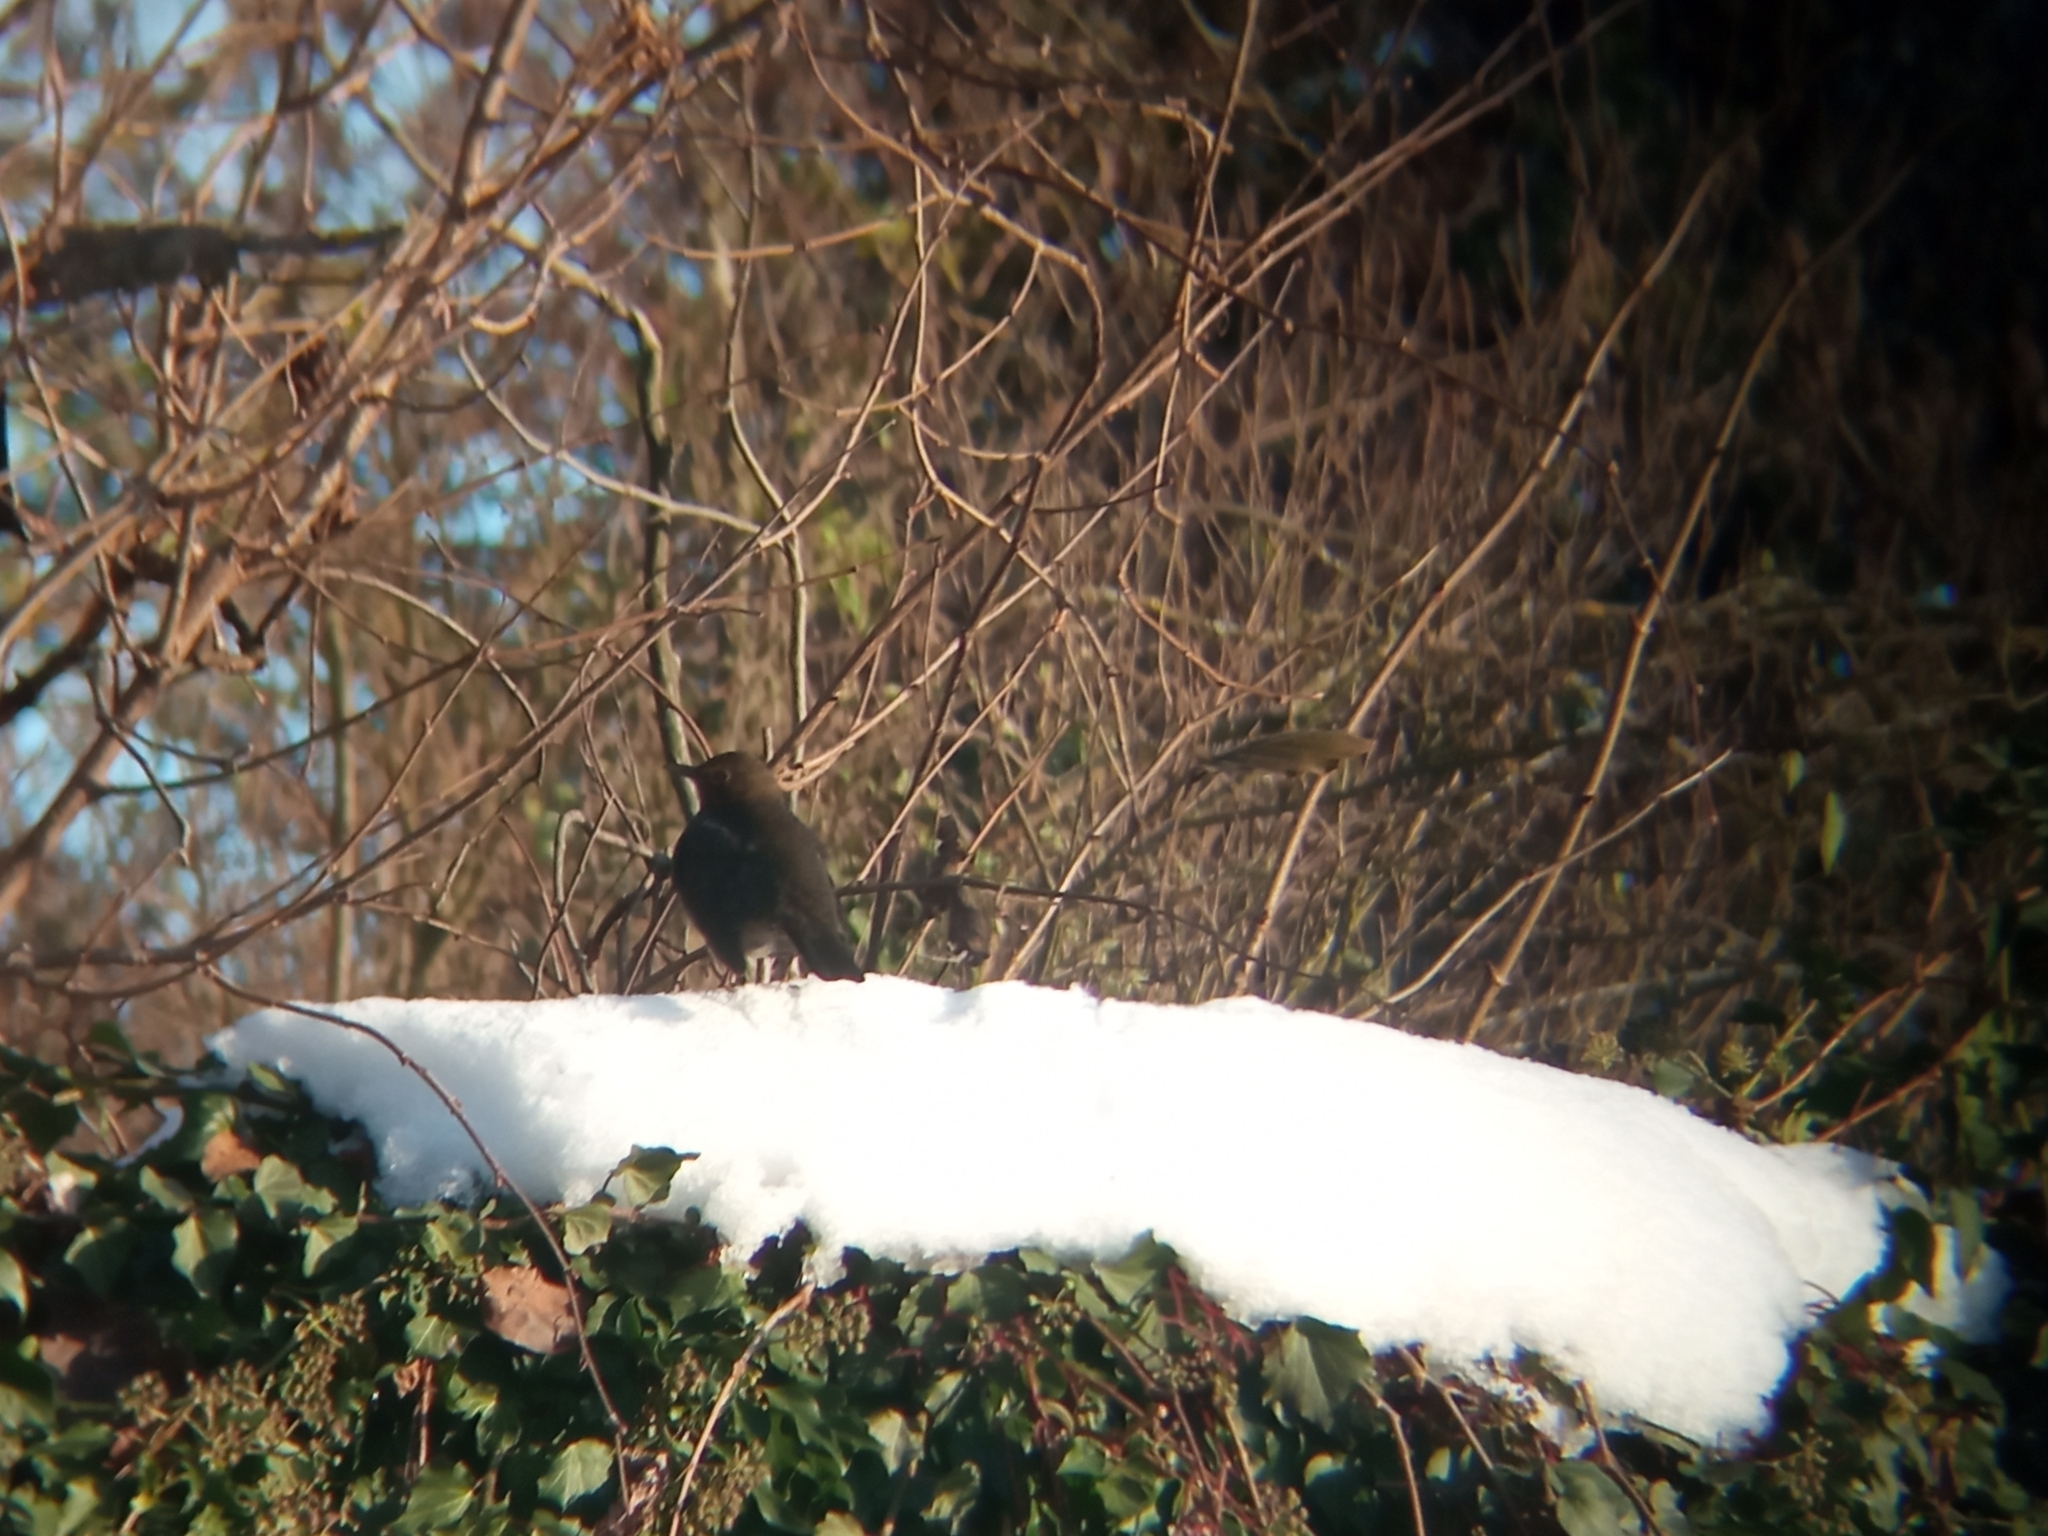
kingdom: Animalia
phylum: Chordata
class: Aves
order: Passeriformes
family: Turdidae
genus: Turdus
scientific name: Turdus merula
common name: Common blackbird
